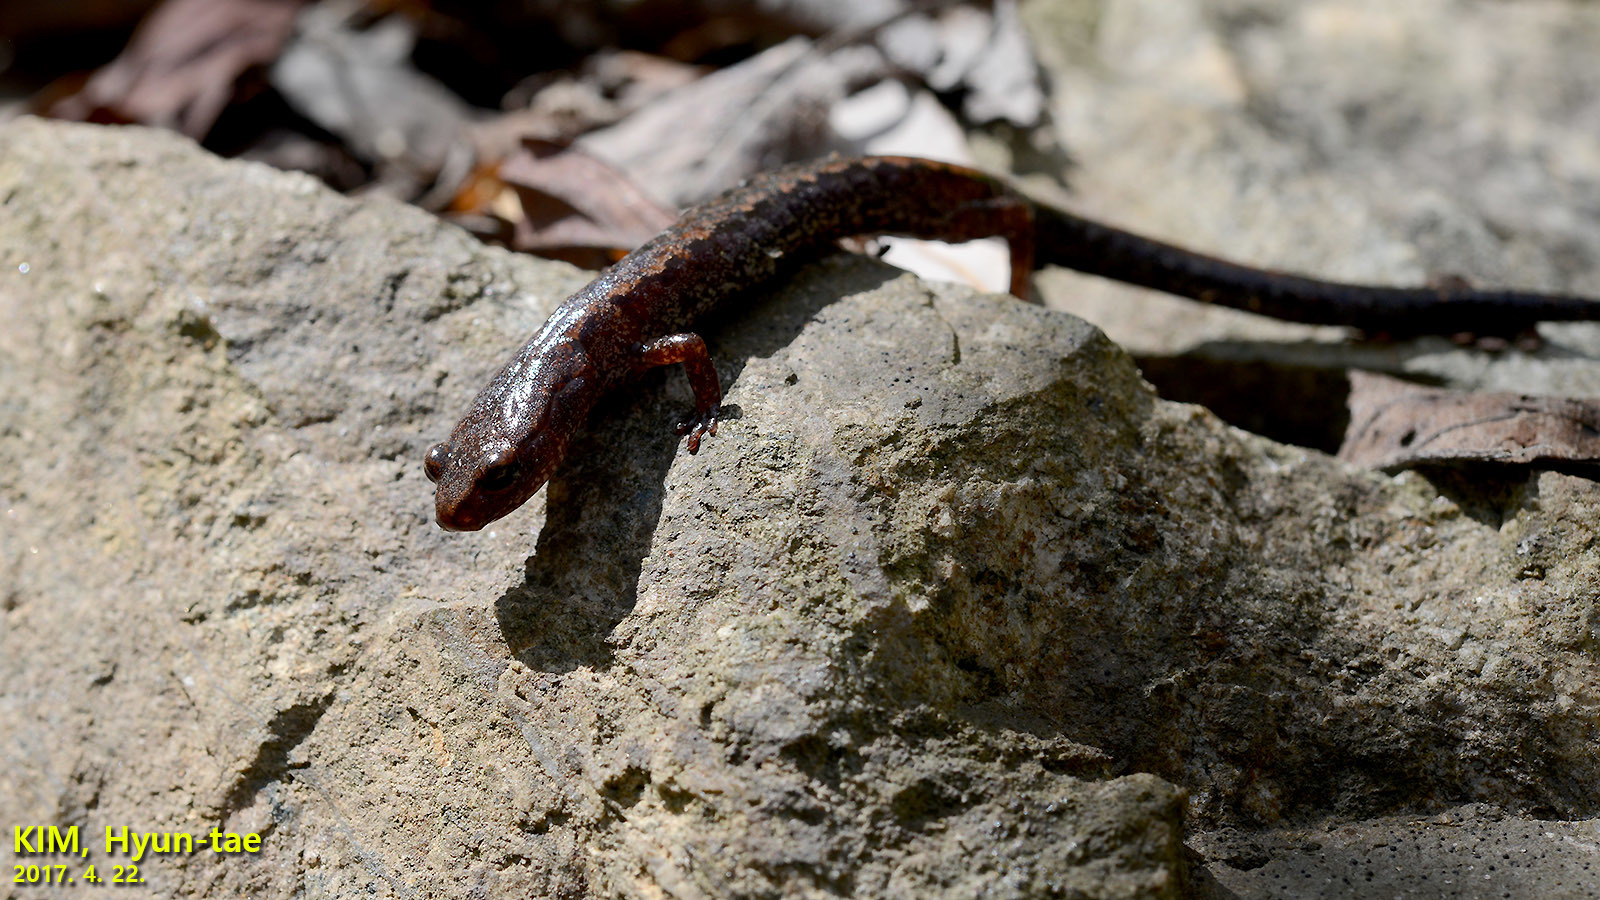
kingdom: Animalia
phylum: Chordata
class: Amphibia
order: Caudata
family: Plethodontidae
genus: Karsenia
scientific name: Karsenia koreana
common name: Korean crevice salamander
